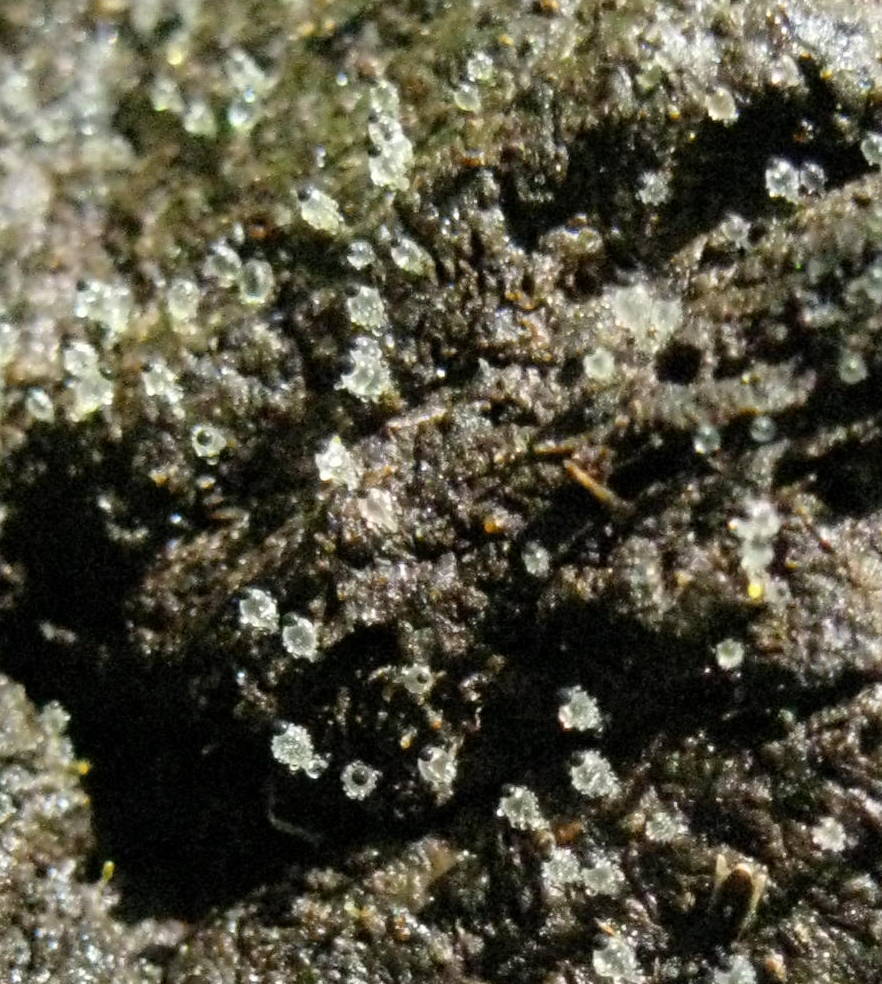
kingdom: Fungi
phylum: Mucoromycota
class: Mucoromycetes
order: Mucorales
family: Pilobolaceae
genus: Pilobolus
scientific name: Pilobolus
